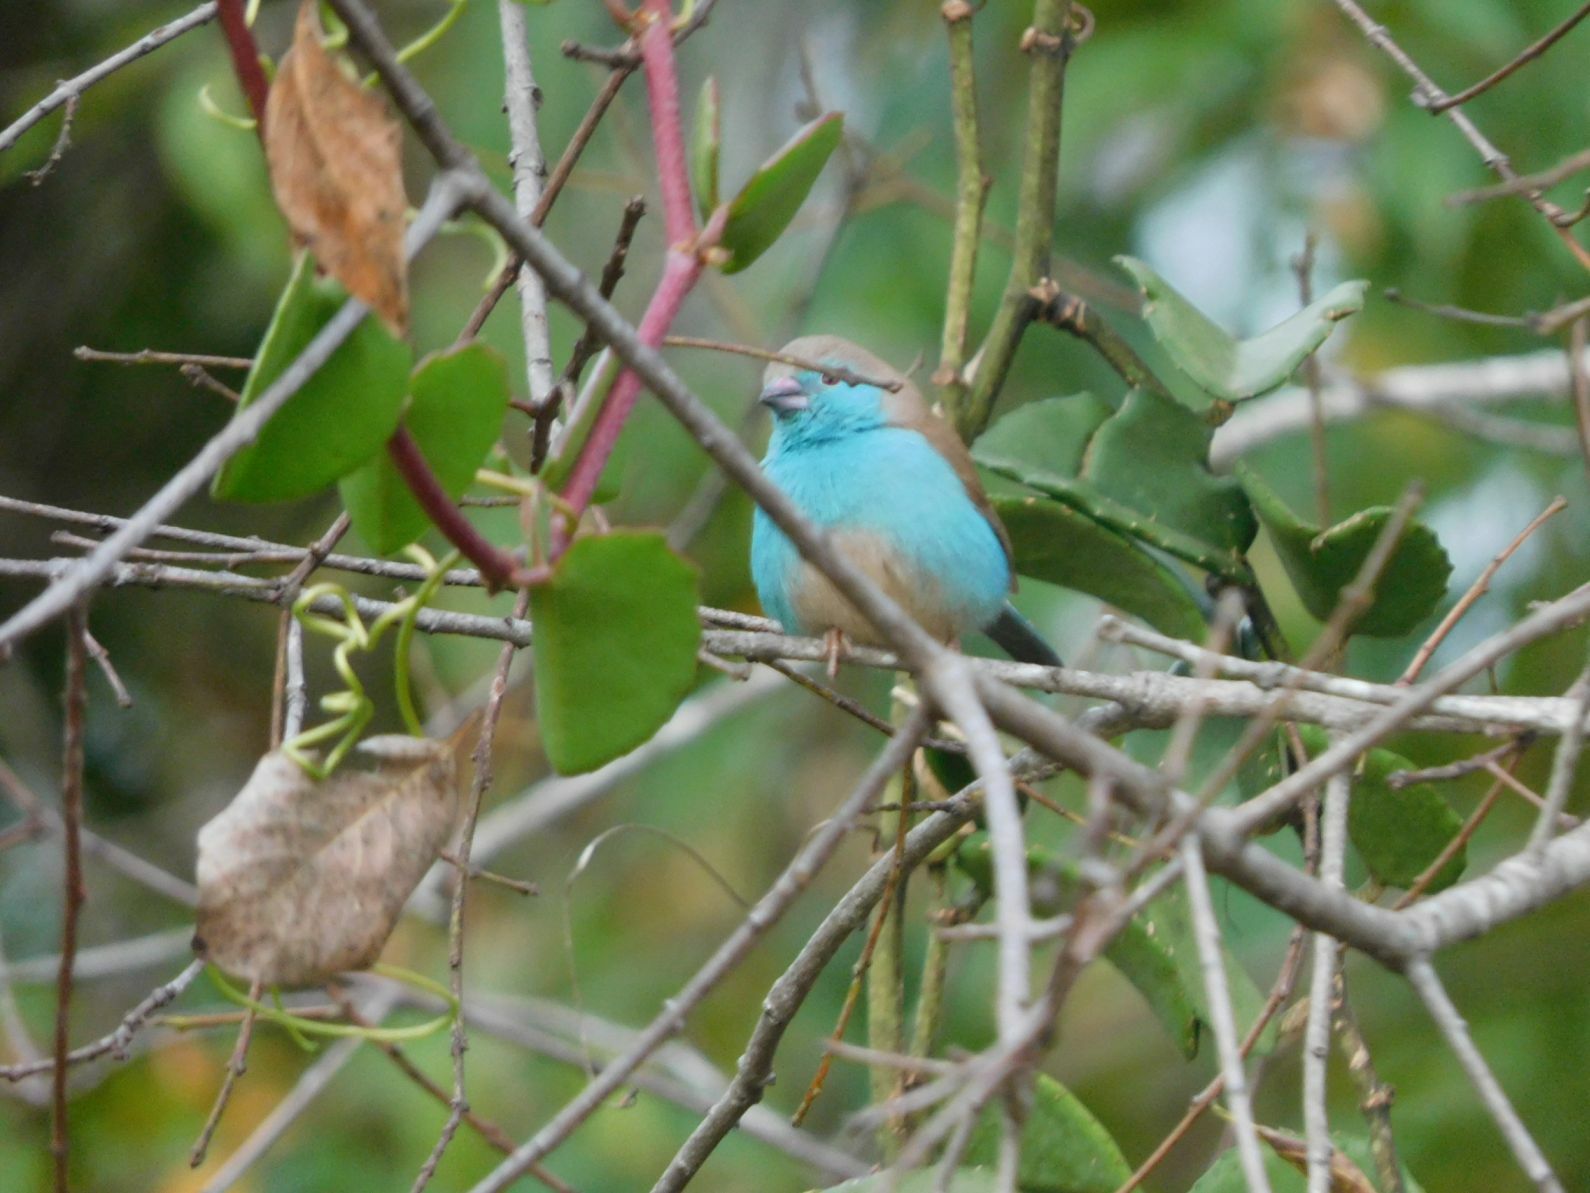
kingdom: Animalia
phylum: Chordata
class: Aves
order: Passeriformes
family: Estrildidae
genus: Uraeginthus
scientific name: Uraeginthus angolensis
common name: Blue waxbill
